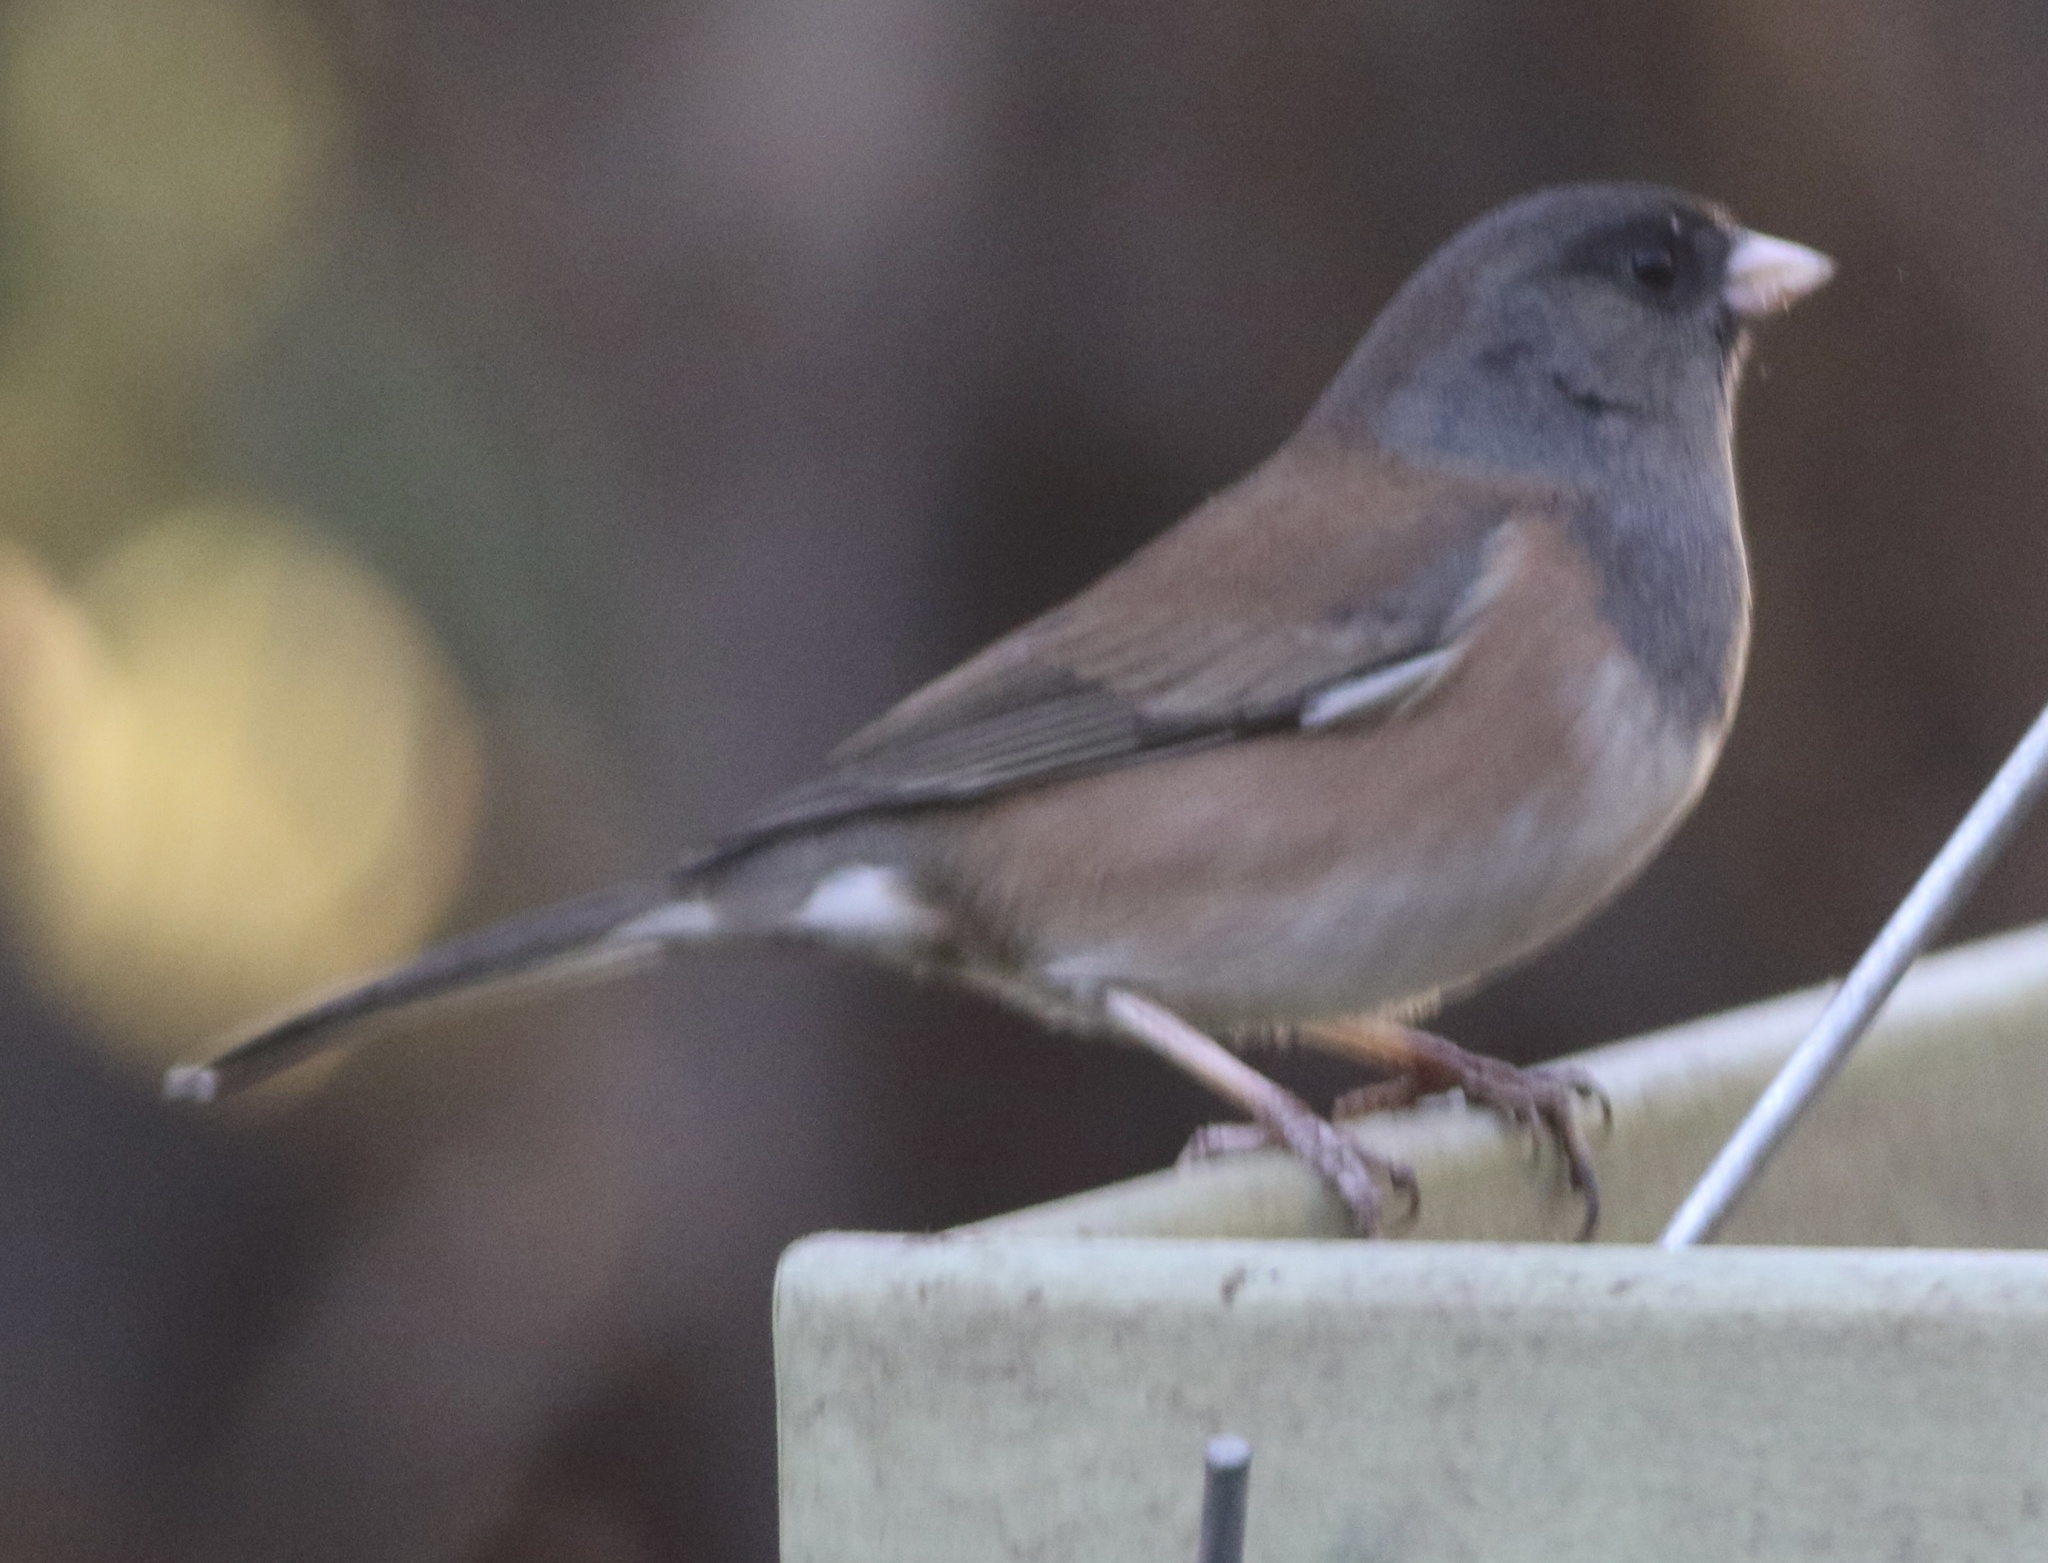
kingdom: Animalia
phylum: Chordata
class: Aves
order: Passeriformes
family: Passerellidae
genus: Junco
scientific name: Junco hyemalis
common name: Dark-eyed junco
